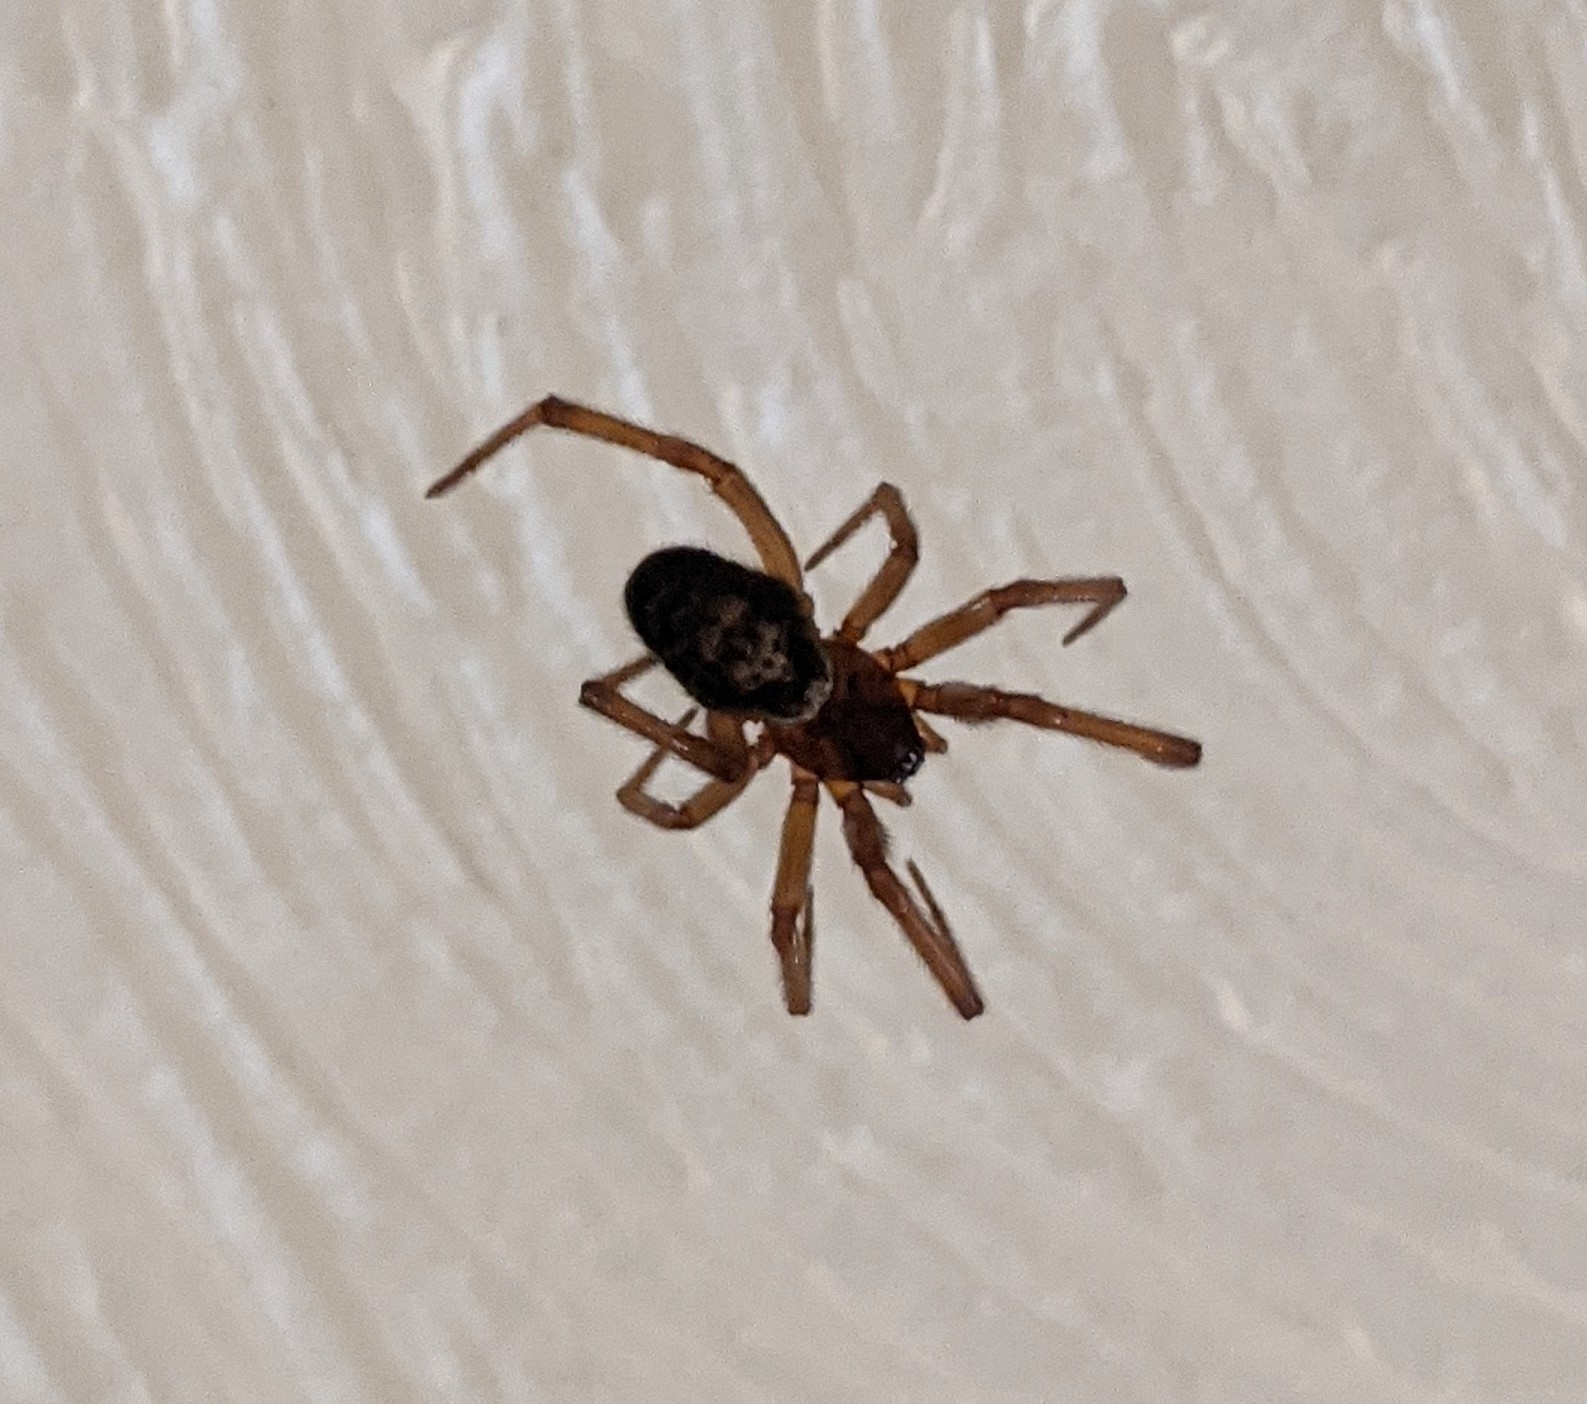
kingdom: Animalia
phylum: Arthropoda
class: Arachnida
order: Araneae
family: Theridiidae
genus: Steatoda
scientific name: Steatoda nobilis
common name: Cobweb weaver
